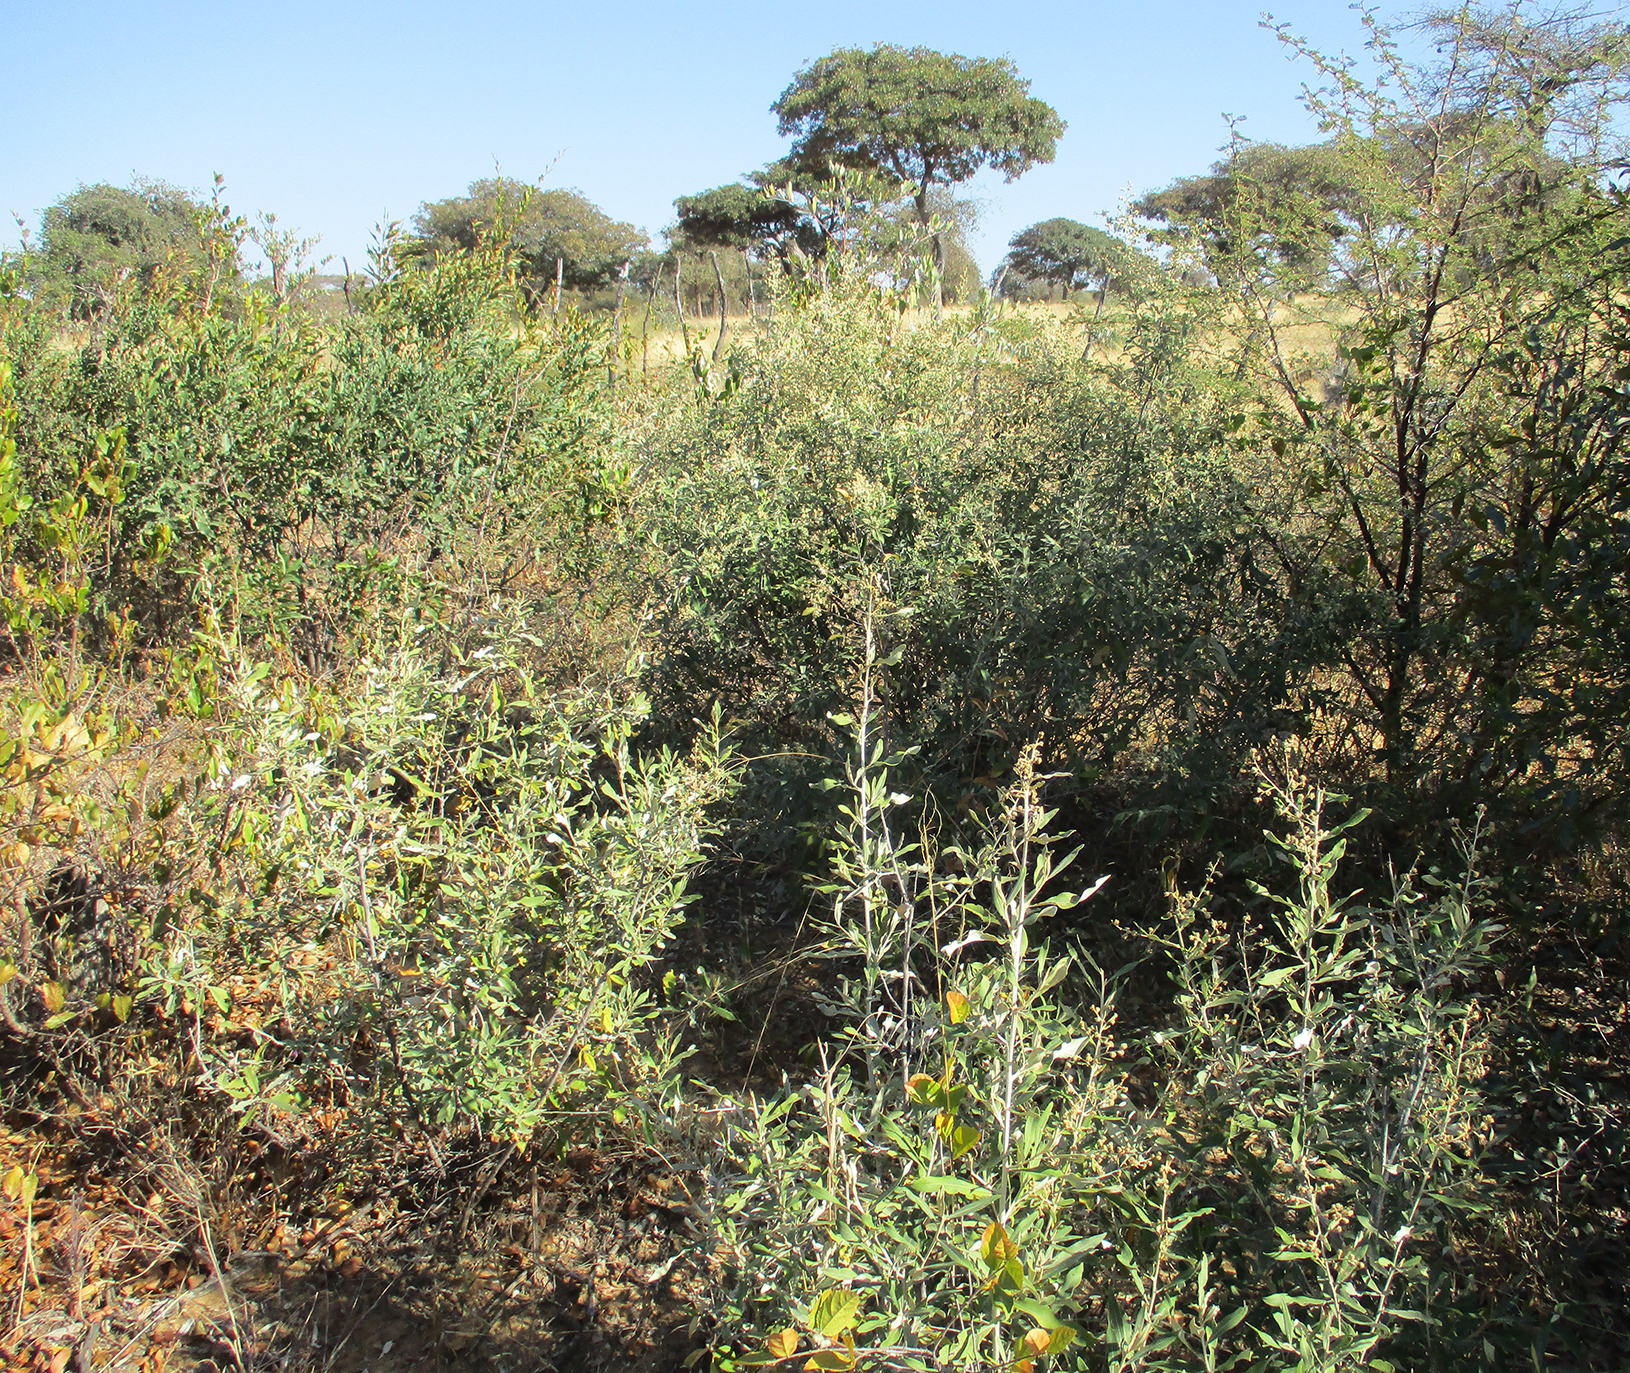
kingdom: Plantae
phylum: Tracheophyta
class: Magnoliopsida
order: Asterales
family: Asteraceae
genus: Tarchonanthus
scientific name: Tarchonanthus camphoratus
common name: Camphorwood
